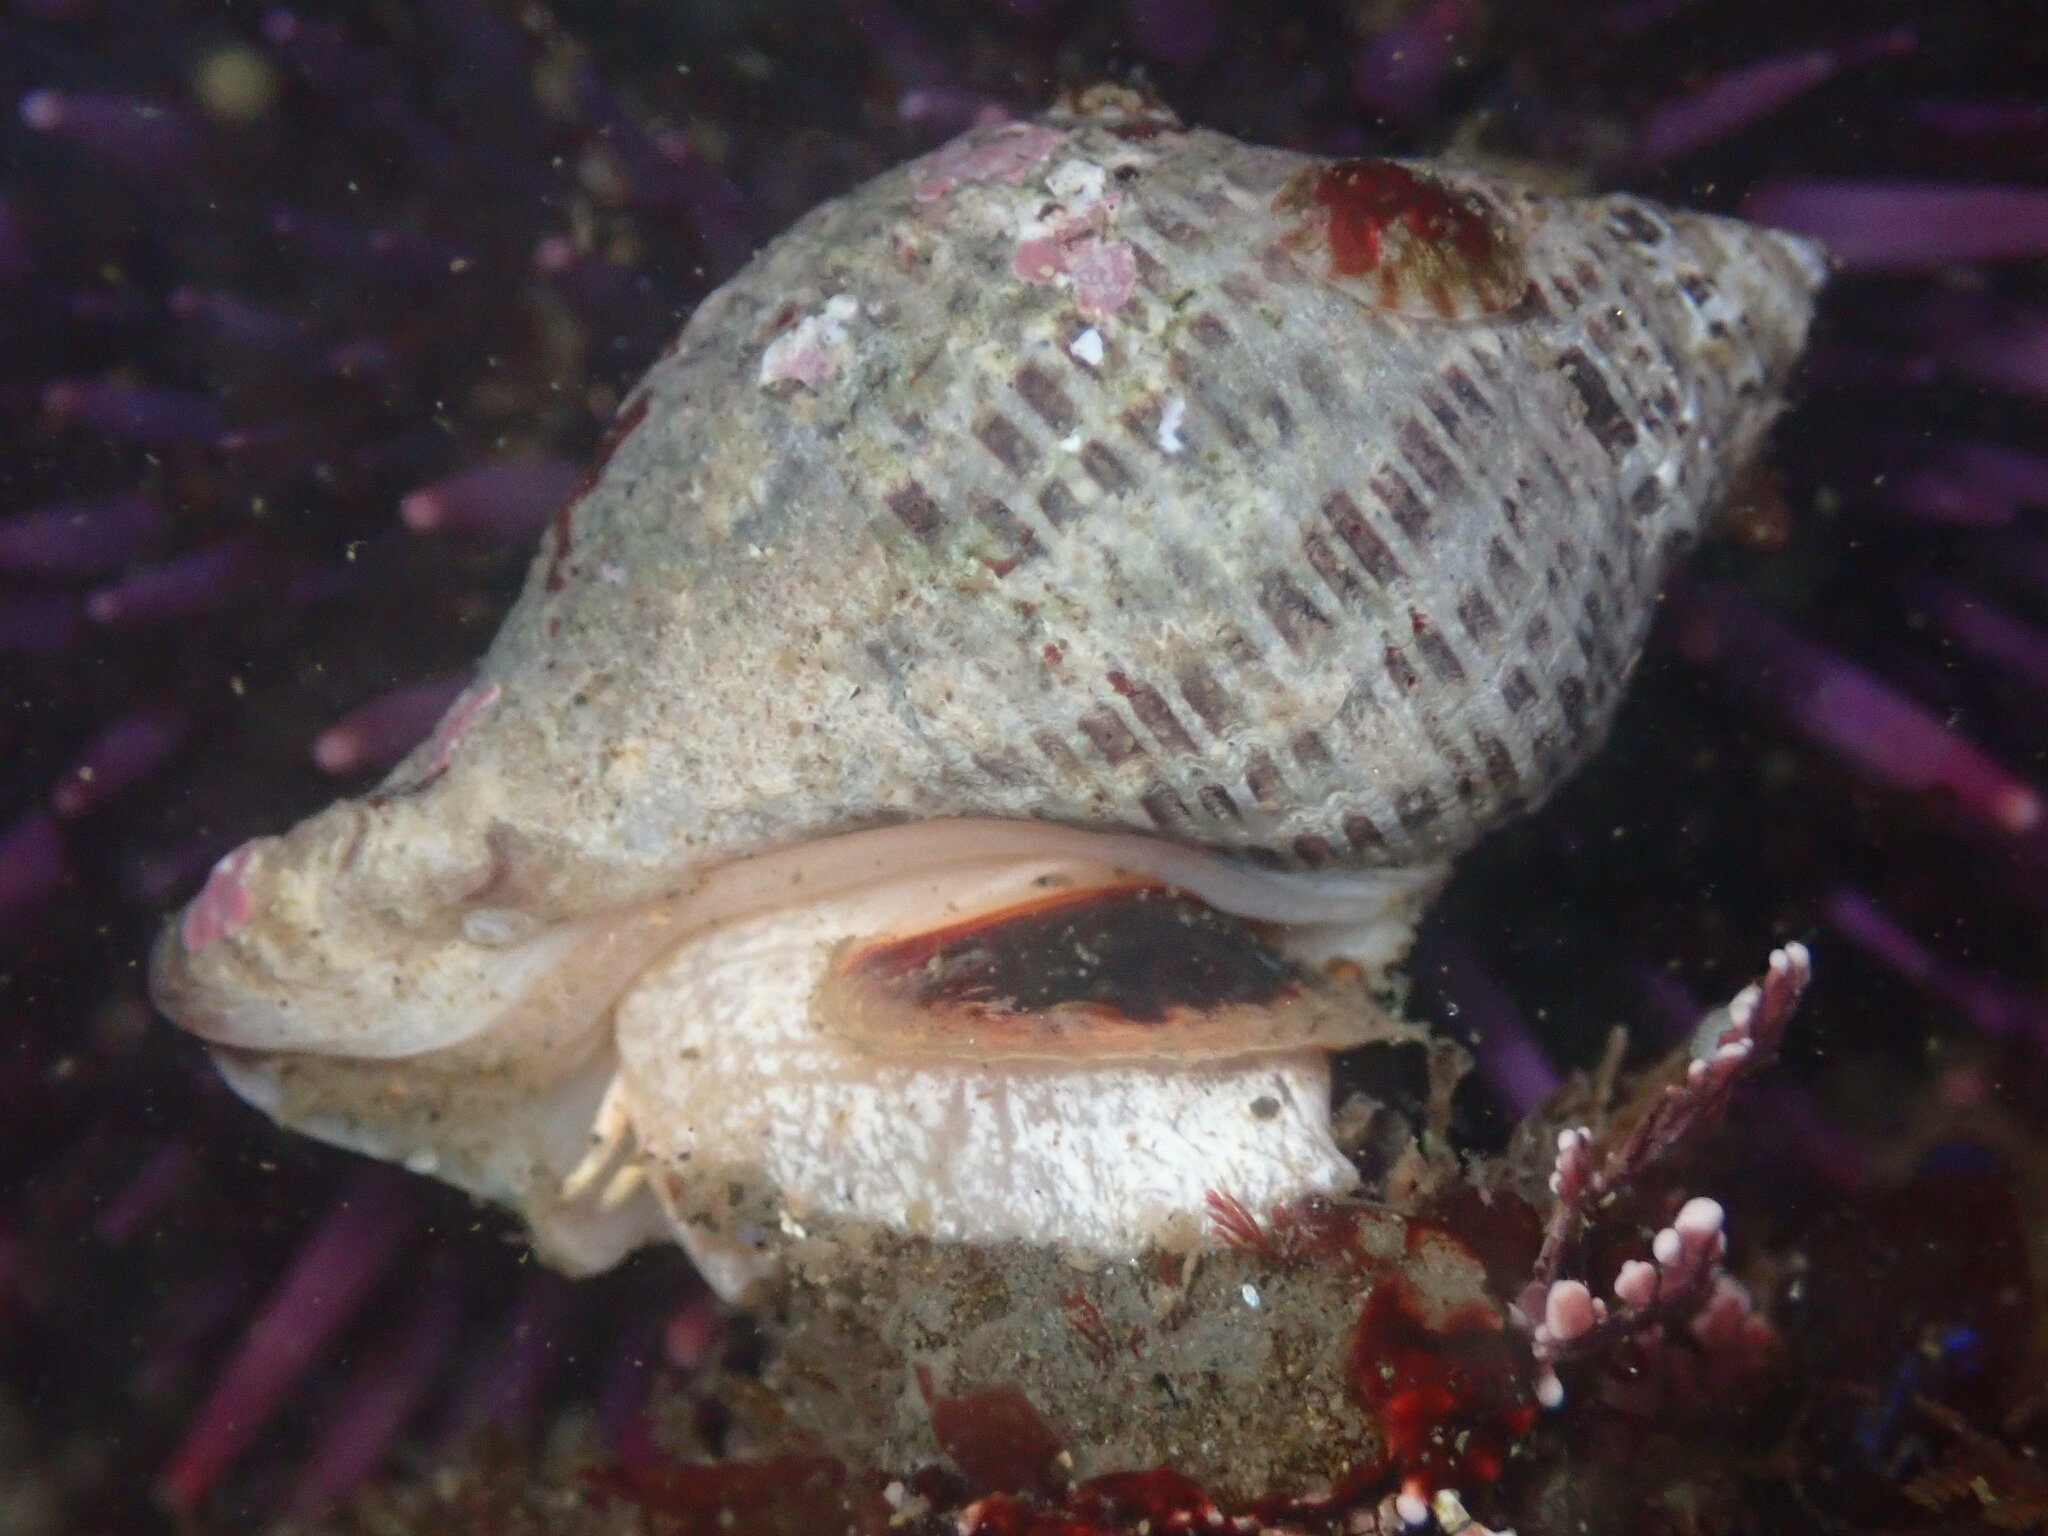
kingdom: Animalia
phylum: Mollusca
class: Gastropoda
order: Neogastropoda
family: Muricidae
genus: Acanthinucella
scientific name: Acanthinucella spirata
